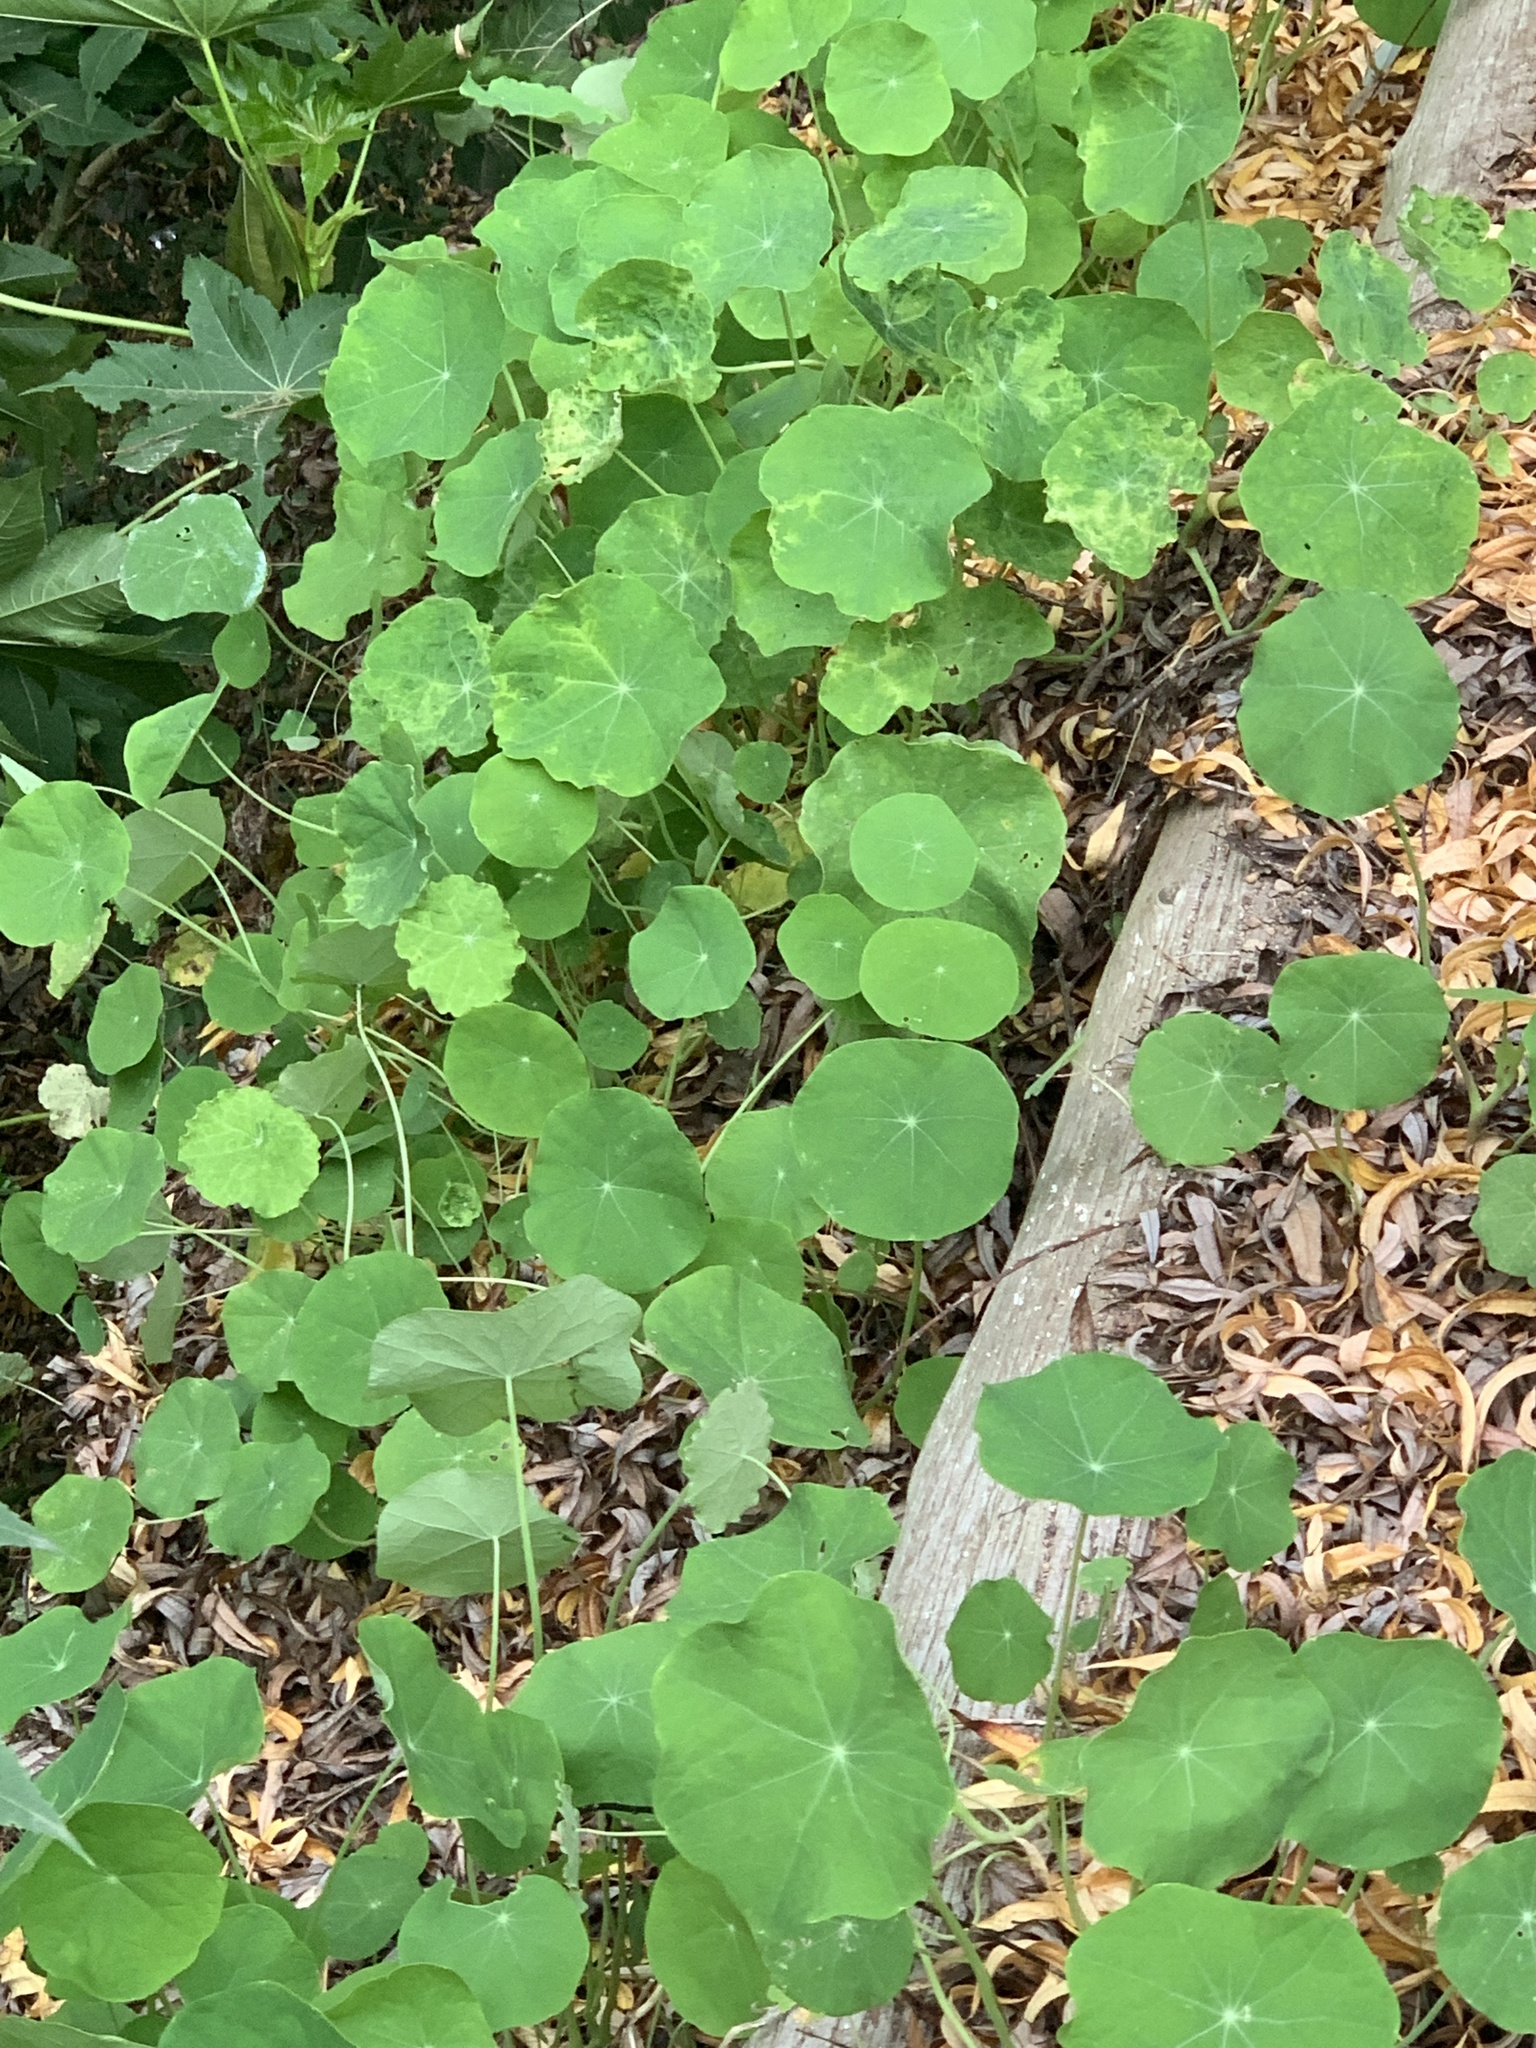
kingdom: Plantae
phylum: Tracheophyta
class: Magnoliopsida
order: Brassicales
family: Tropaeolaceae
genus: Tropaeolum
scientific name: Tropaeolum majus
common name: Nasturtium
